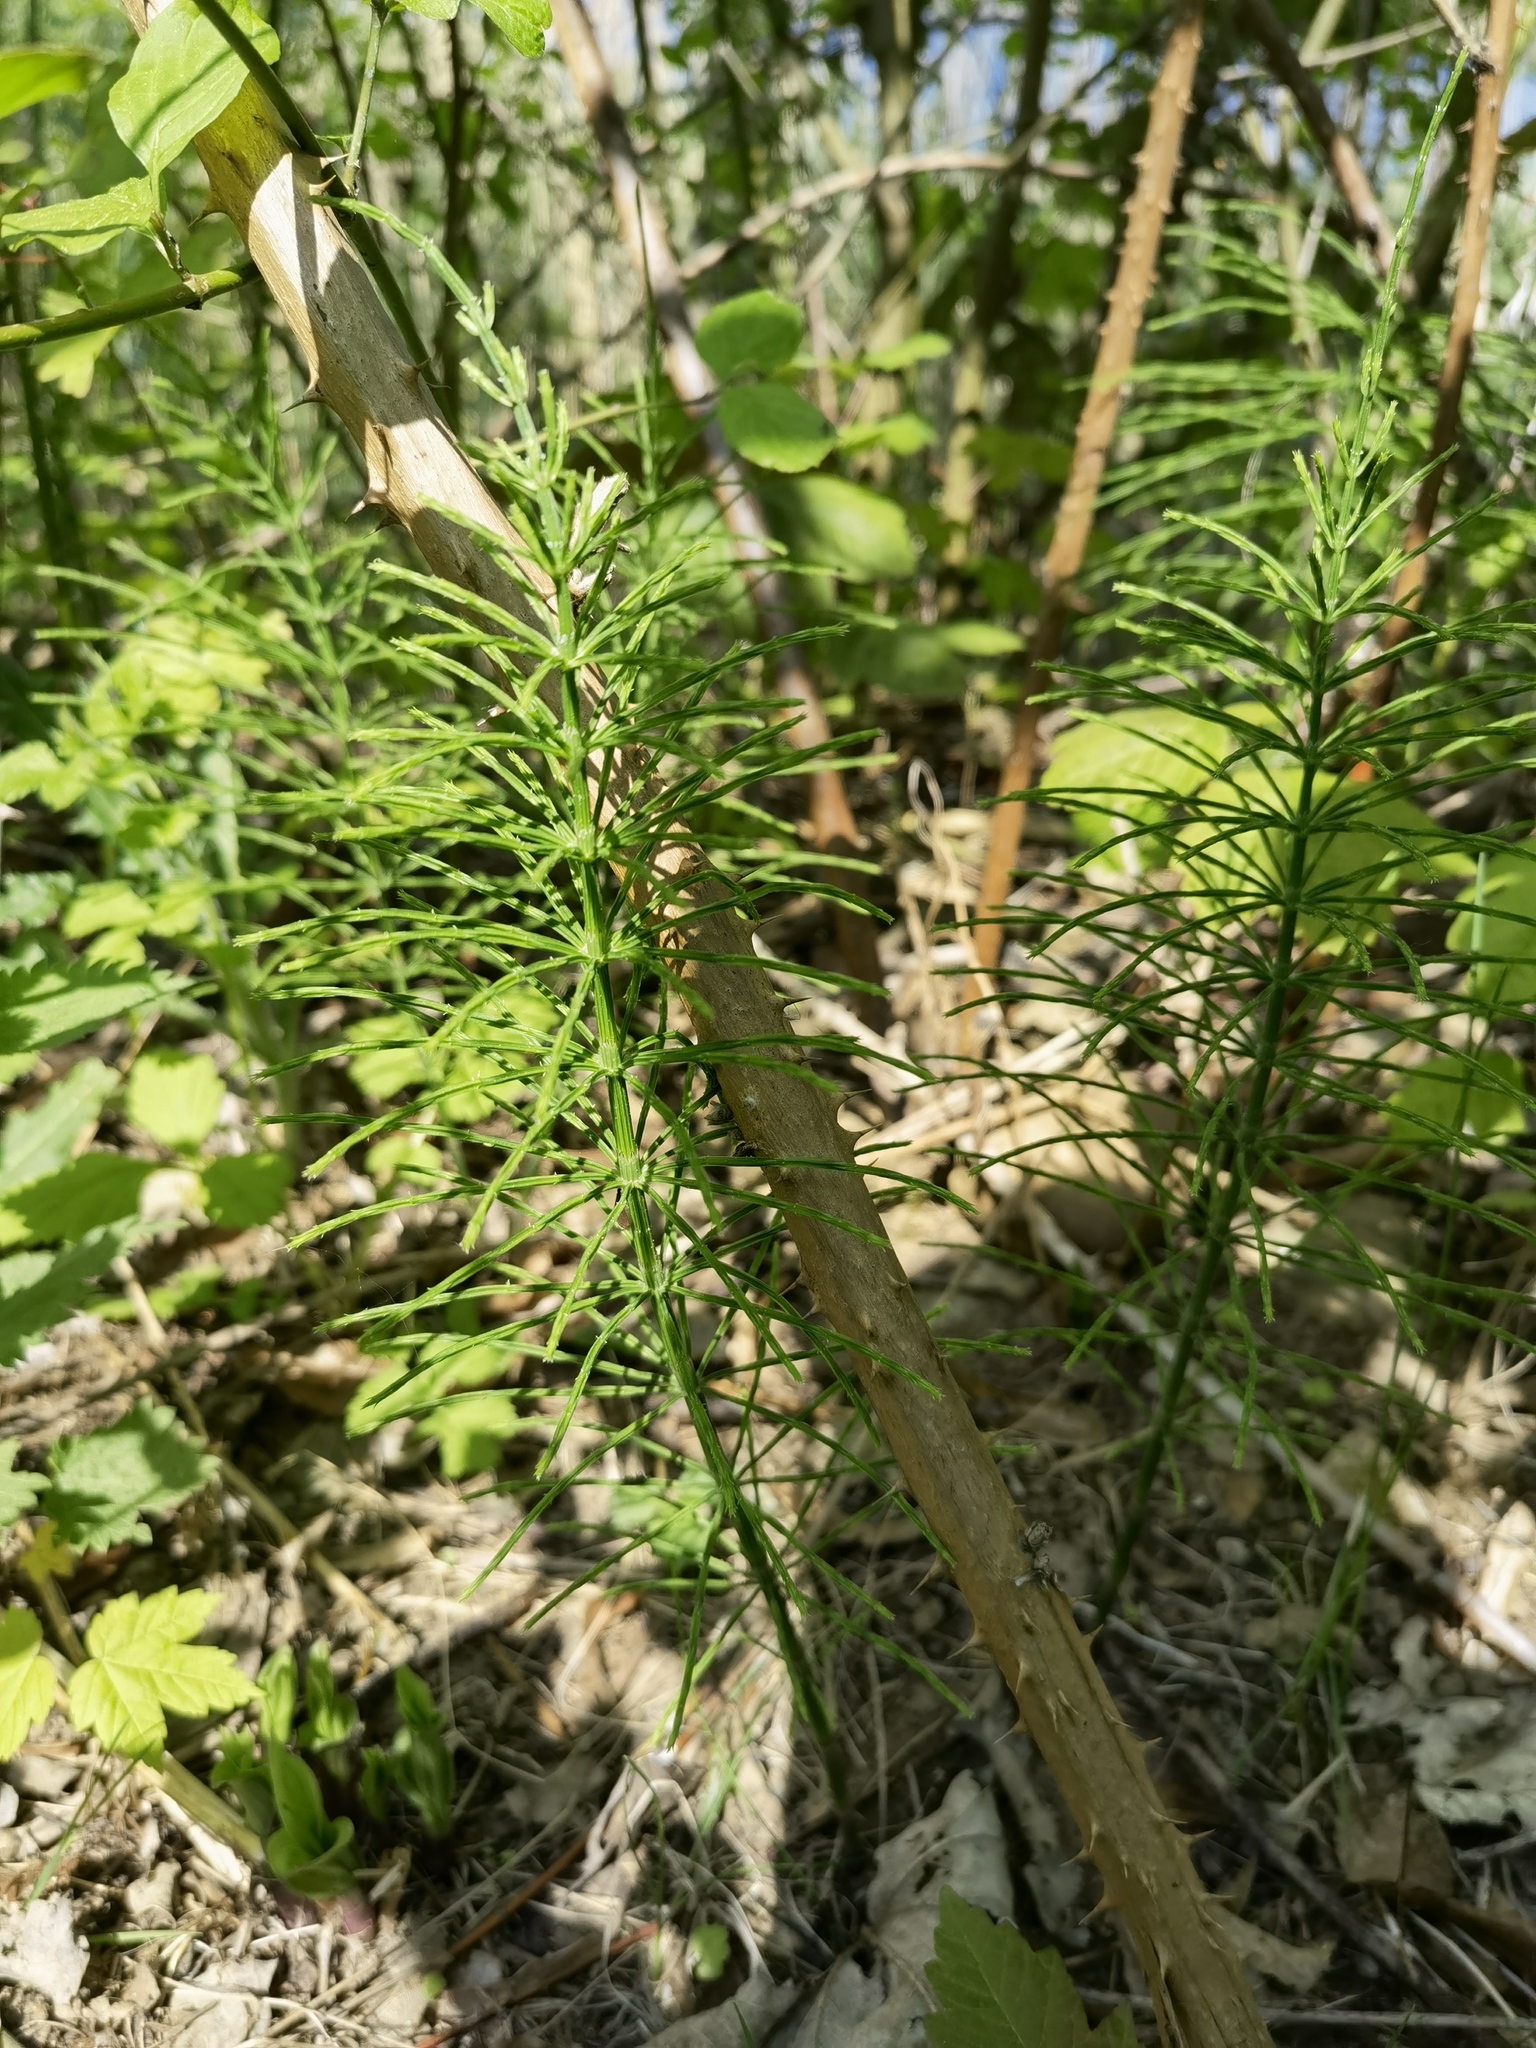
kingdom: Plantae
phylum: Tracheophyta
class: Polypodiopsida
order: Equisetales
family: Equisetaceae
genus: Equisetum
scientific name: Equisetum arvense
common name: Field horsetail
